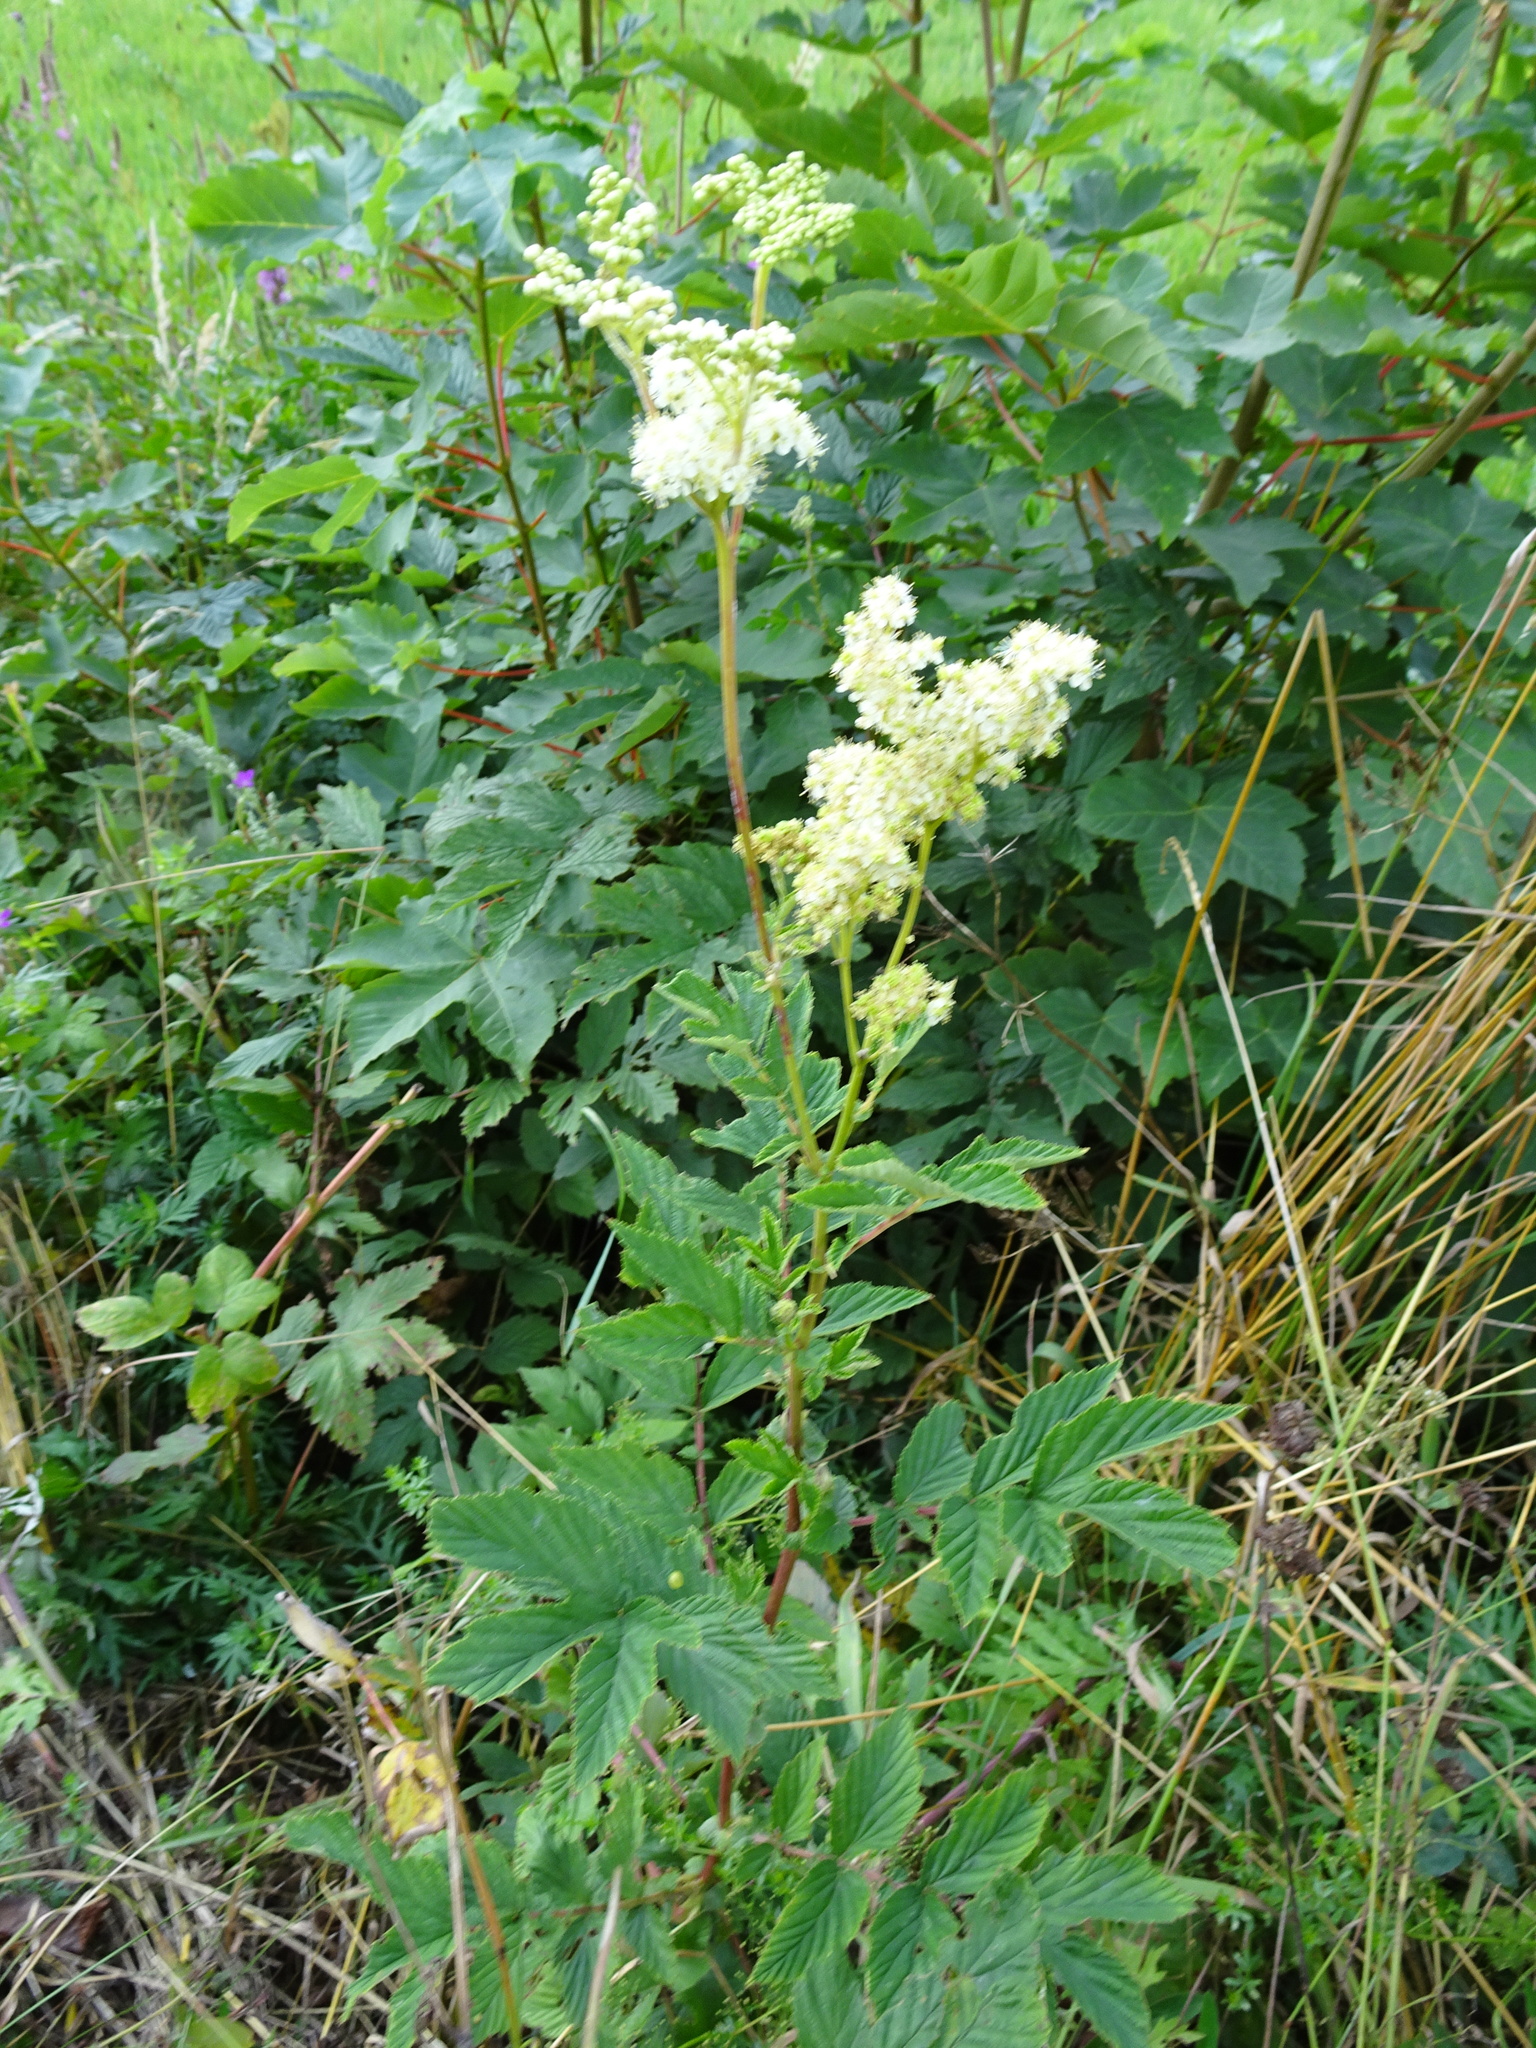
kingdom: Plantae
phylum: Tracheophyta
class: Magnoliopsida
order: Rosales
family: Rosaceae
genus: Filipendula
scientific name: Filipendula ulmaria
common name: Meadowsweet
